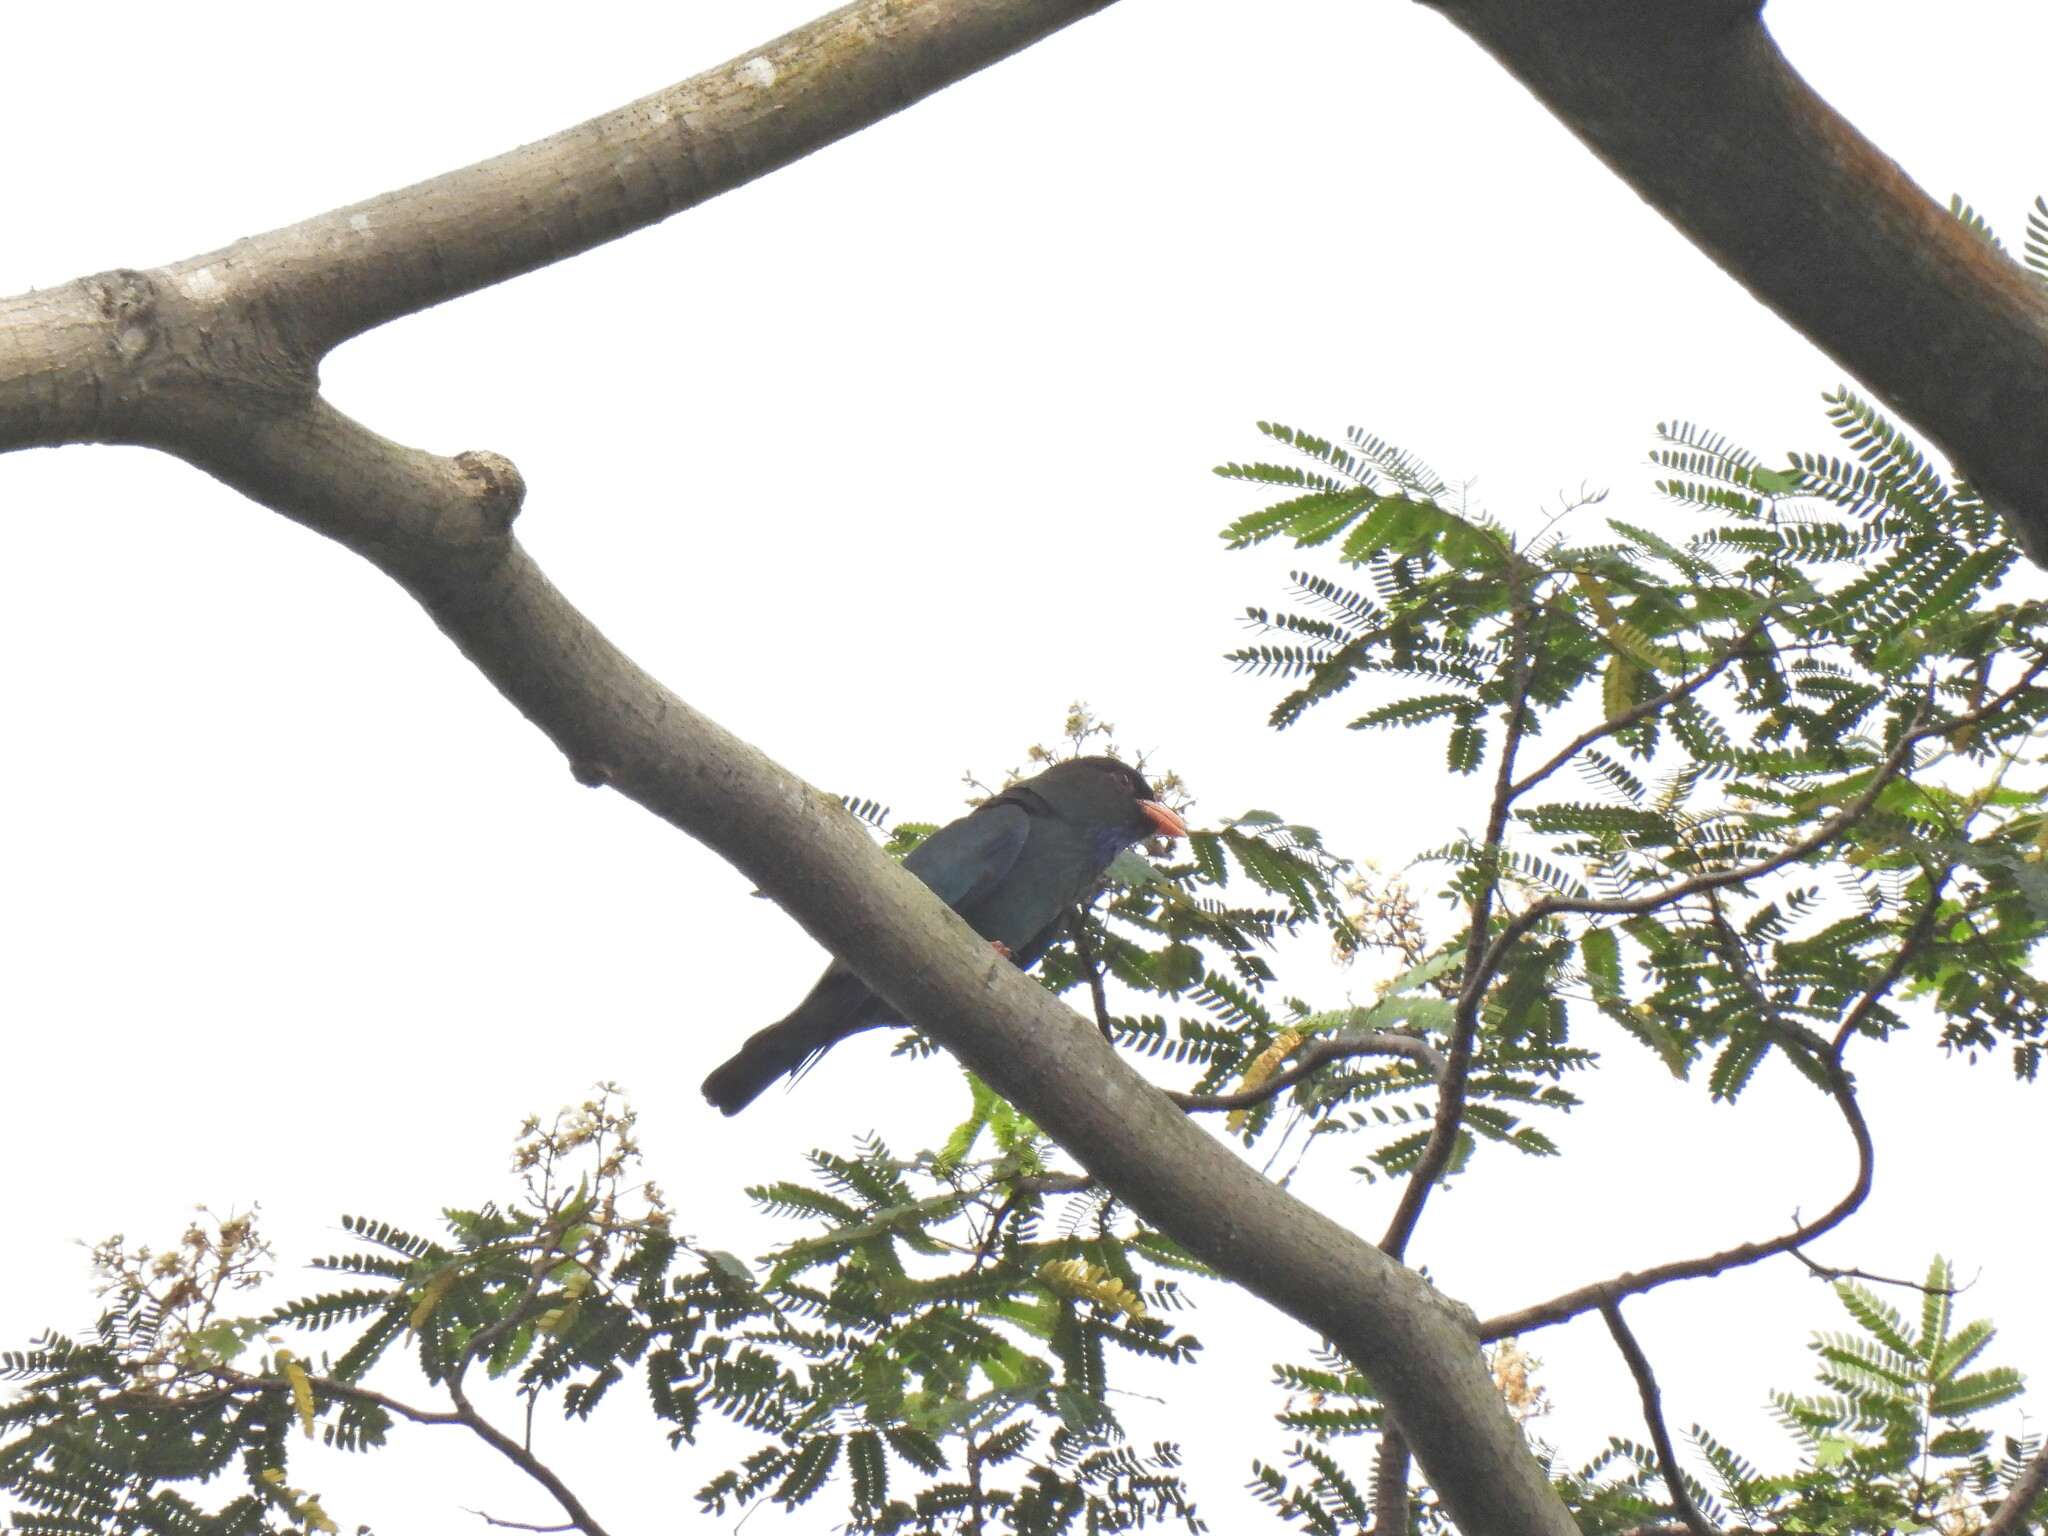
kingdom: Animalia
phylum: Chordata
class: Aves
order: Coraciiformes
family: Coraciidae
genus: Eurystomus
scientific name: Eurystomus orientalis
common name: Oriental dollarbird
